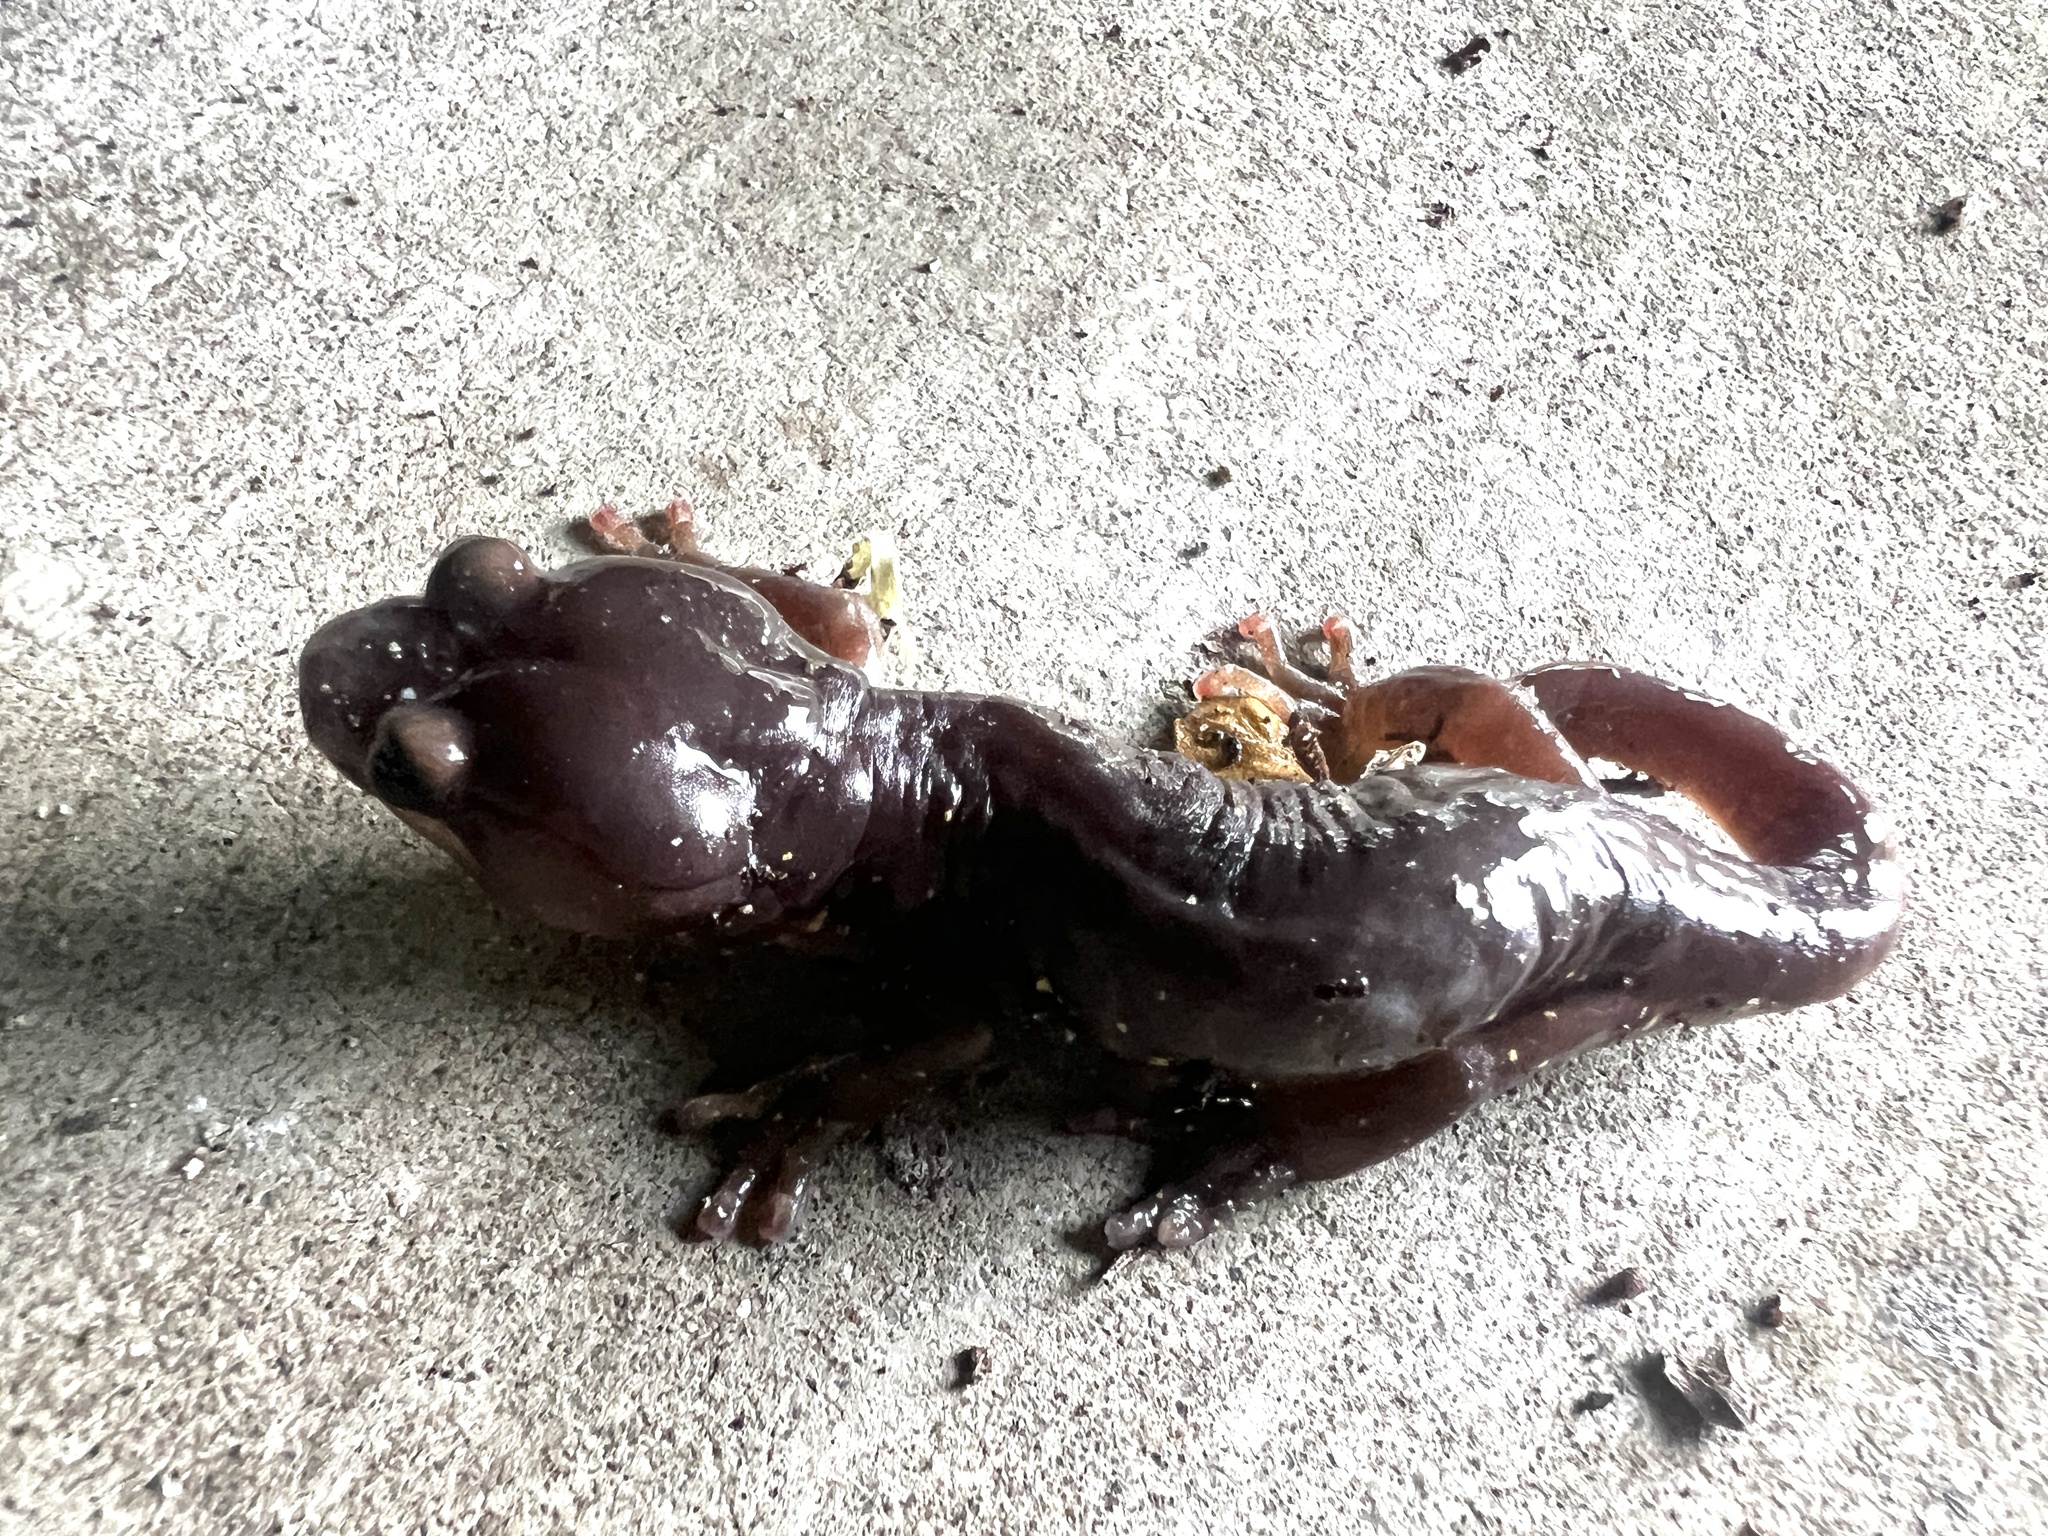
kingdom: Animalia
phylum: Chordata
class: Amphibia
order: Caudata
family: Plethodontidae
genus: Aneides
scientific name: Aneides lugubris
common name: Arboreal salamander
